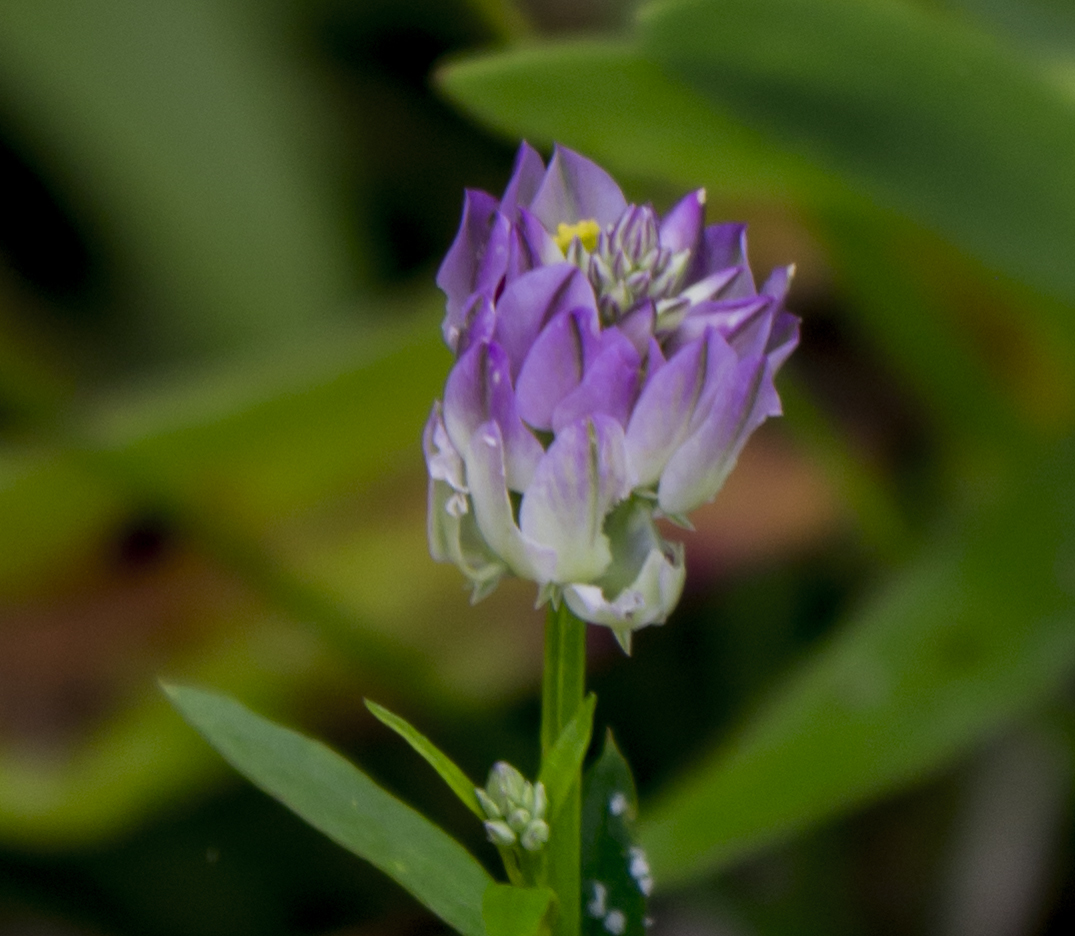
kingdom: Plantae
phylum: Tracheophyta
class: Magnoliopsida
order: Fabales
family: Polygalaceae
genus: Polygala
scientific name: Polygala sanguinea
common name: Blood milkwort
